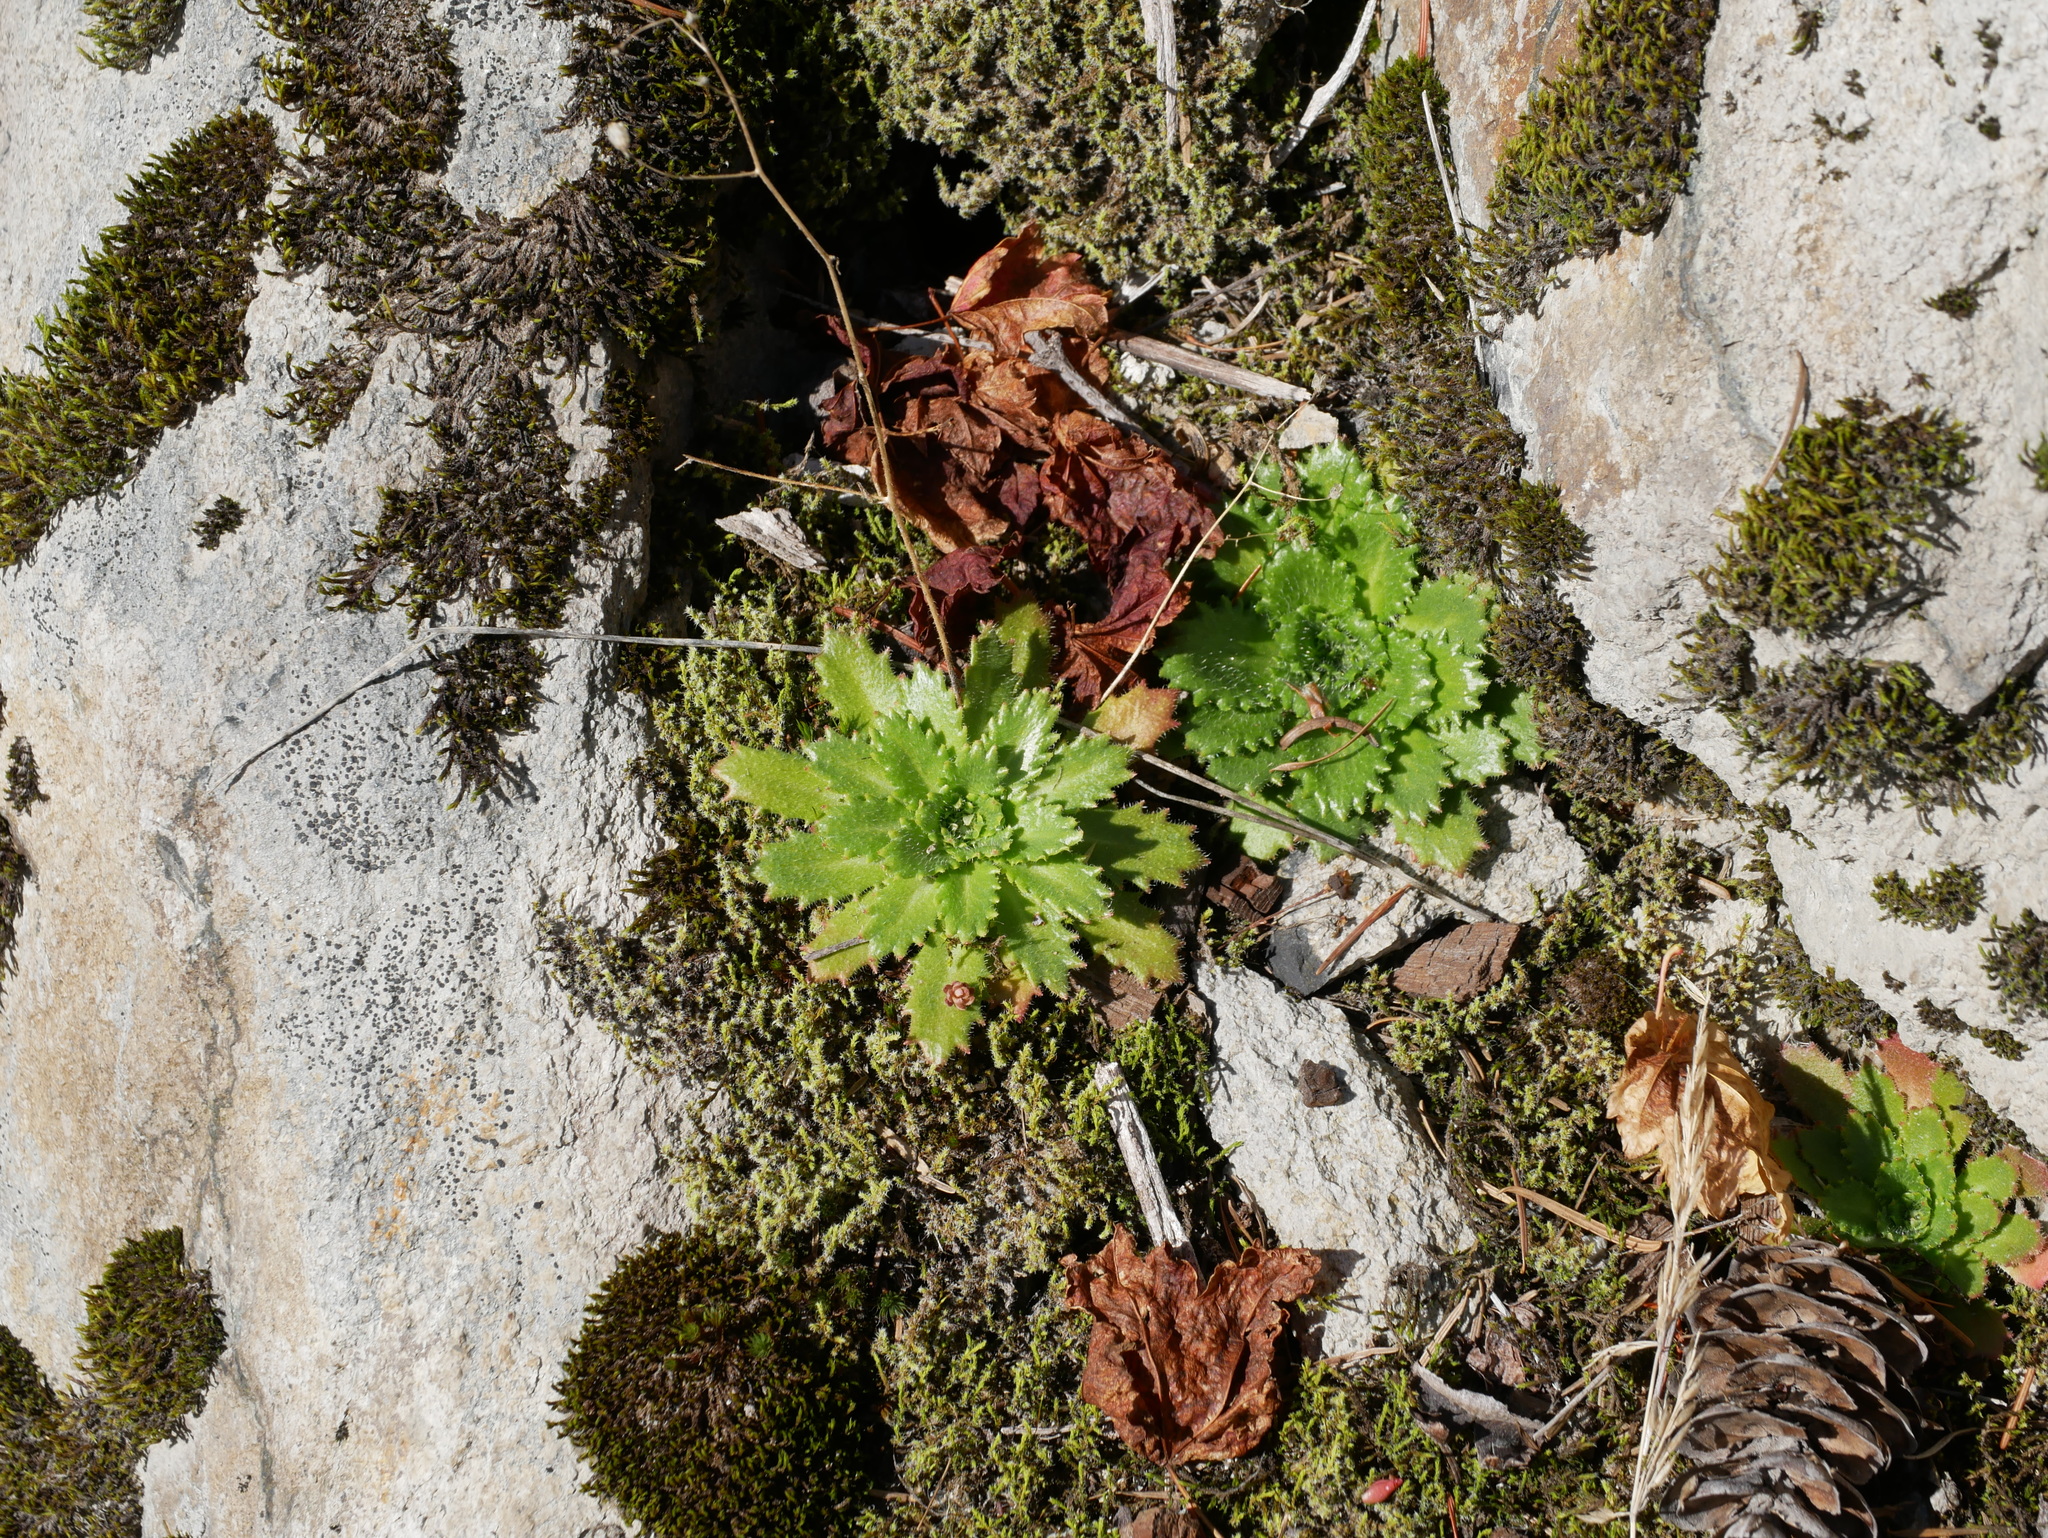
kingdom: Plantae
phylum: Tracheophyta
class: Magnoliopsida
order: Saxifragales
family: Saxifragaceae
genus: Micranthes
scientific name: Micranthes ferruginea
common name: Rusty saxifrage
